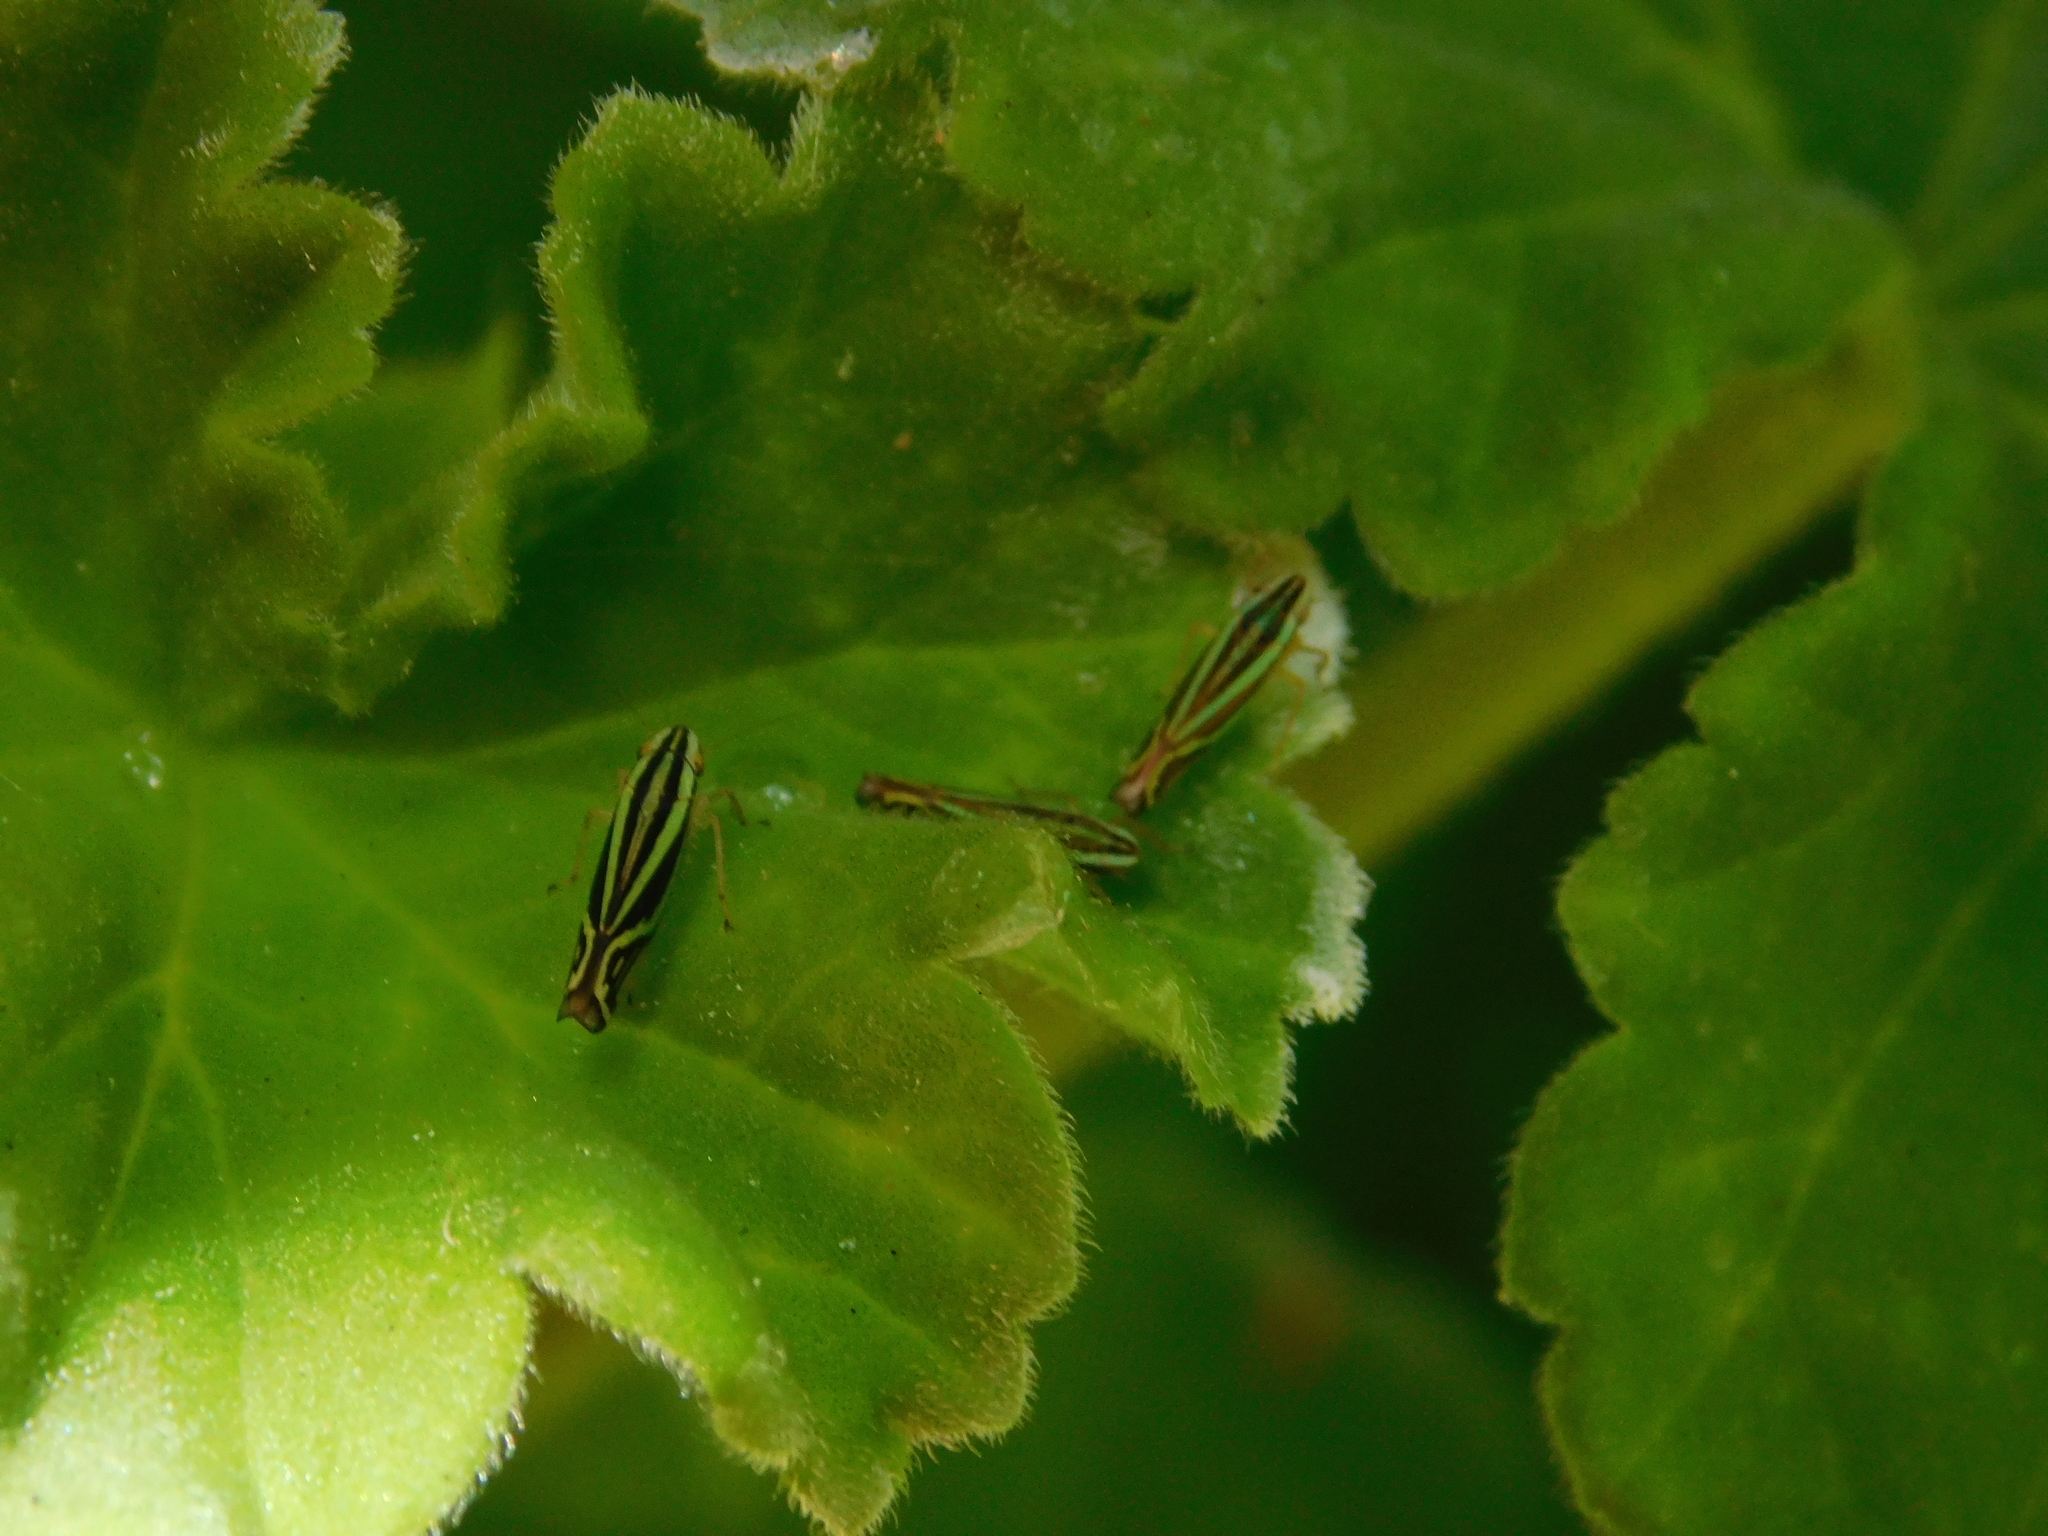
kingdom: Animalia
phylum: Arthropoda
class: Insecta
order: Hemiptera
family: Cicadellidae
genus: Sibovia
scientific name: Sibovia sagata
